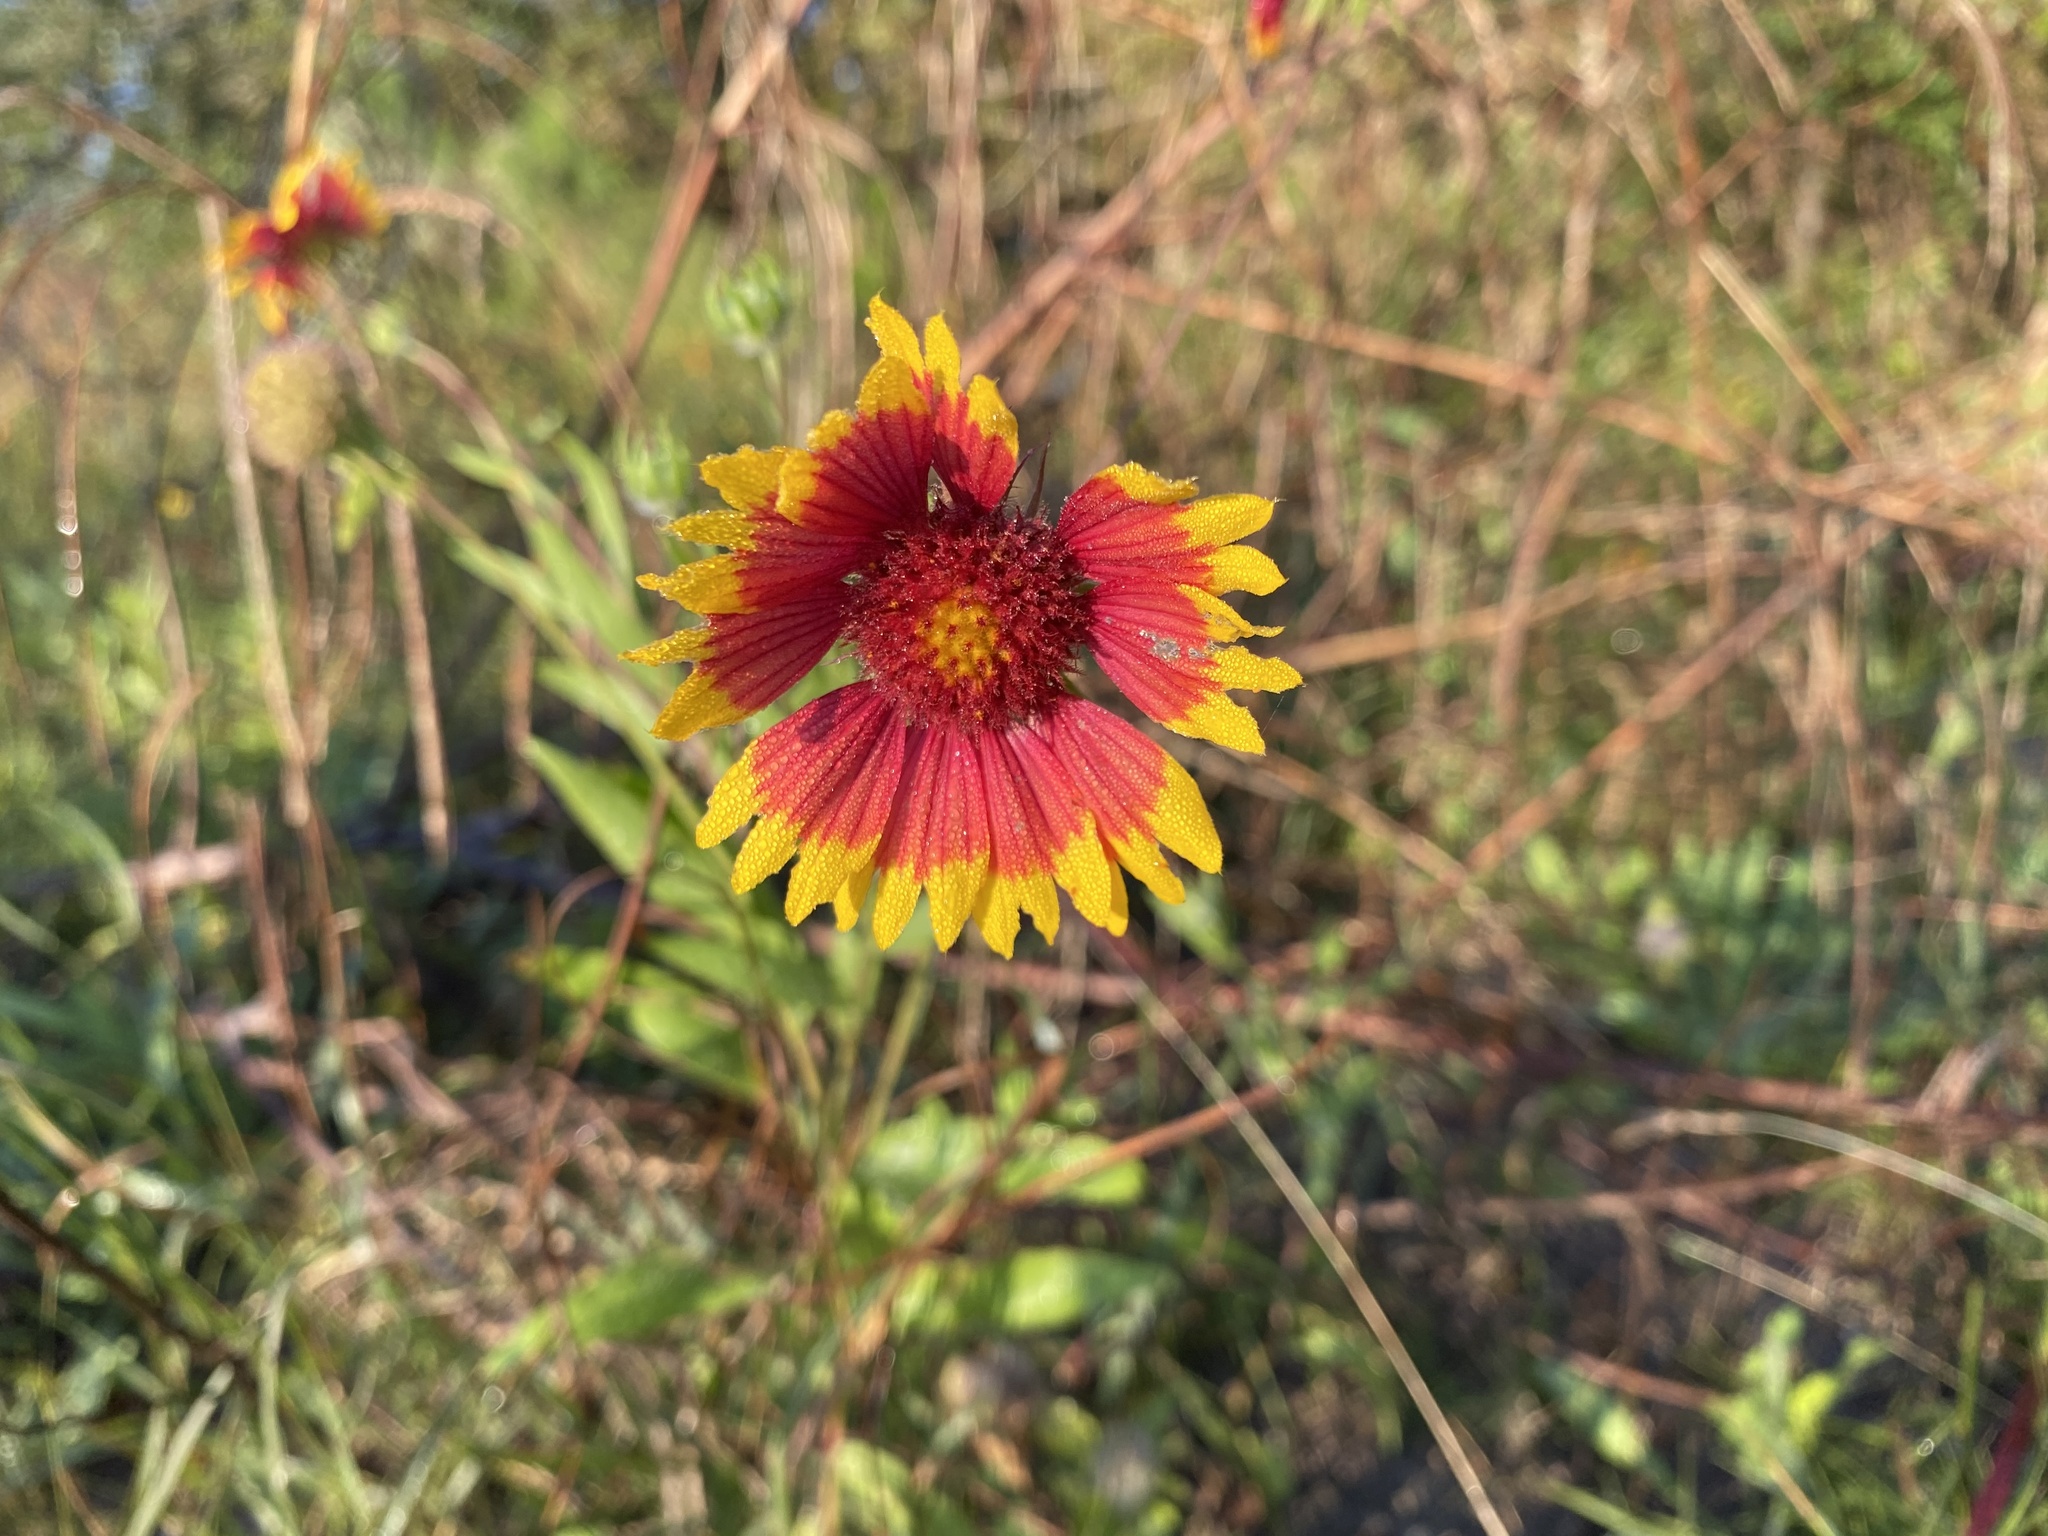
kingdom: Plantae
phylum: Tracheophyta
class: Magnoliopsida
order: Asterales
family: Asteraceae
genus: Gaillardia
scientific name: Gaillardia pulchella
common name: Firewheel
